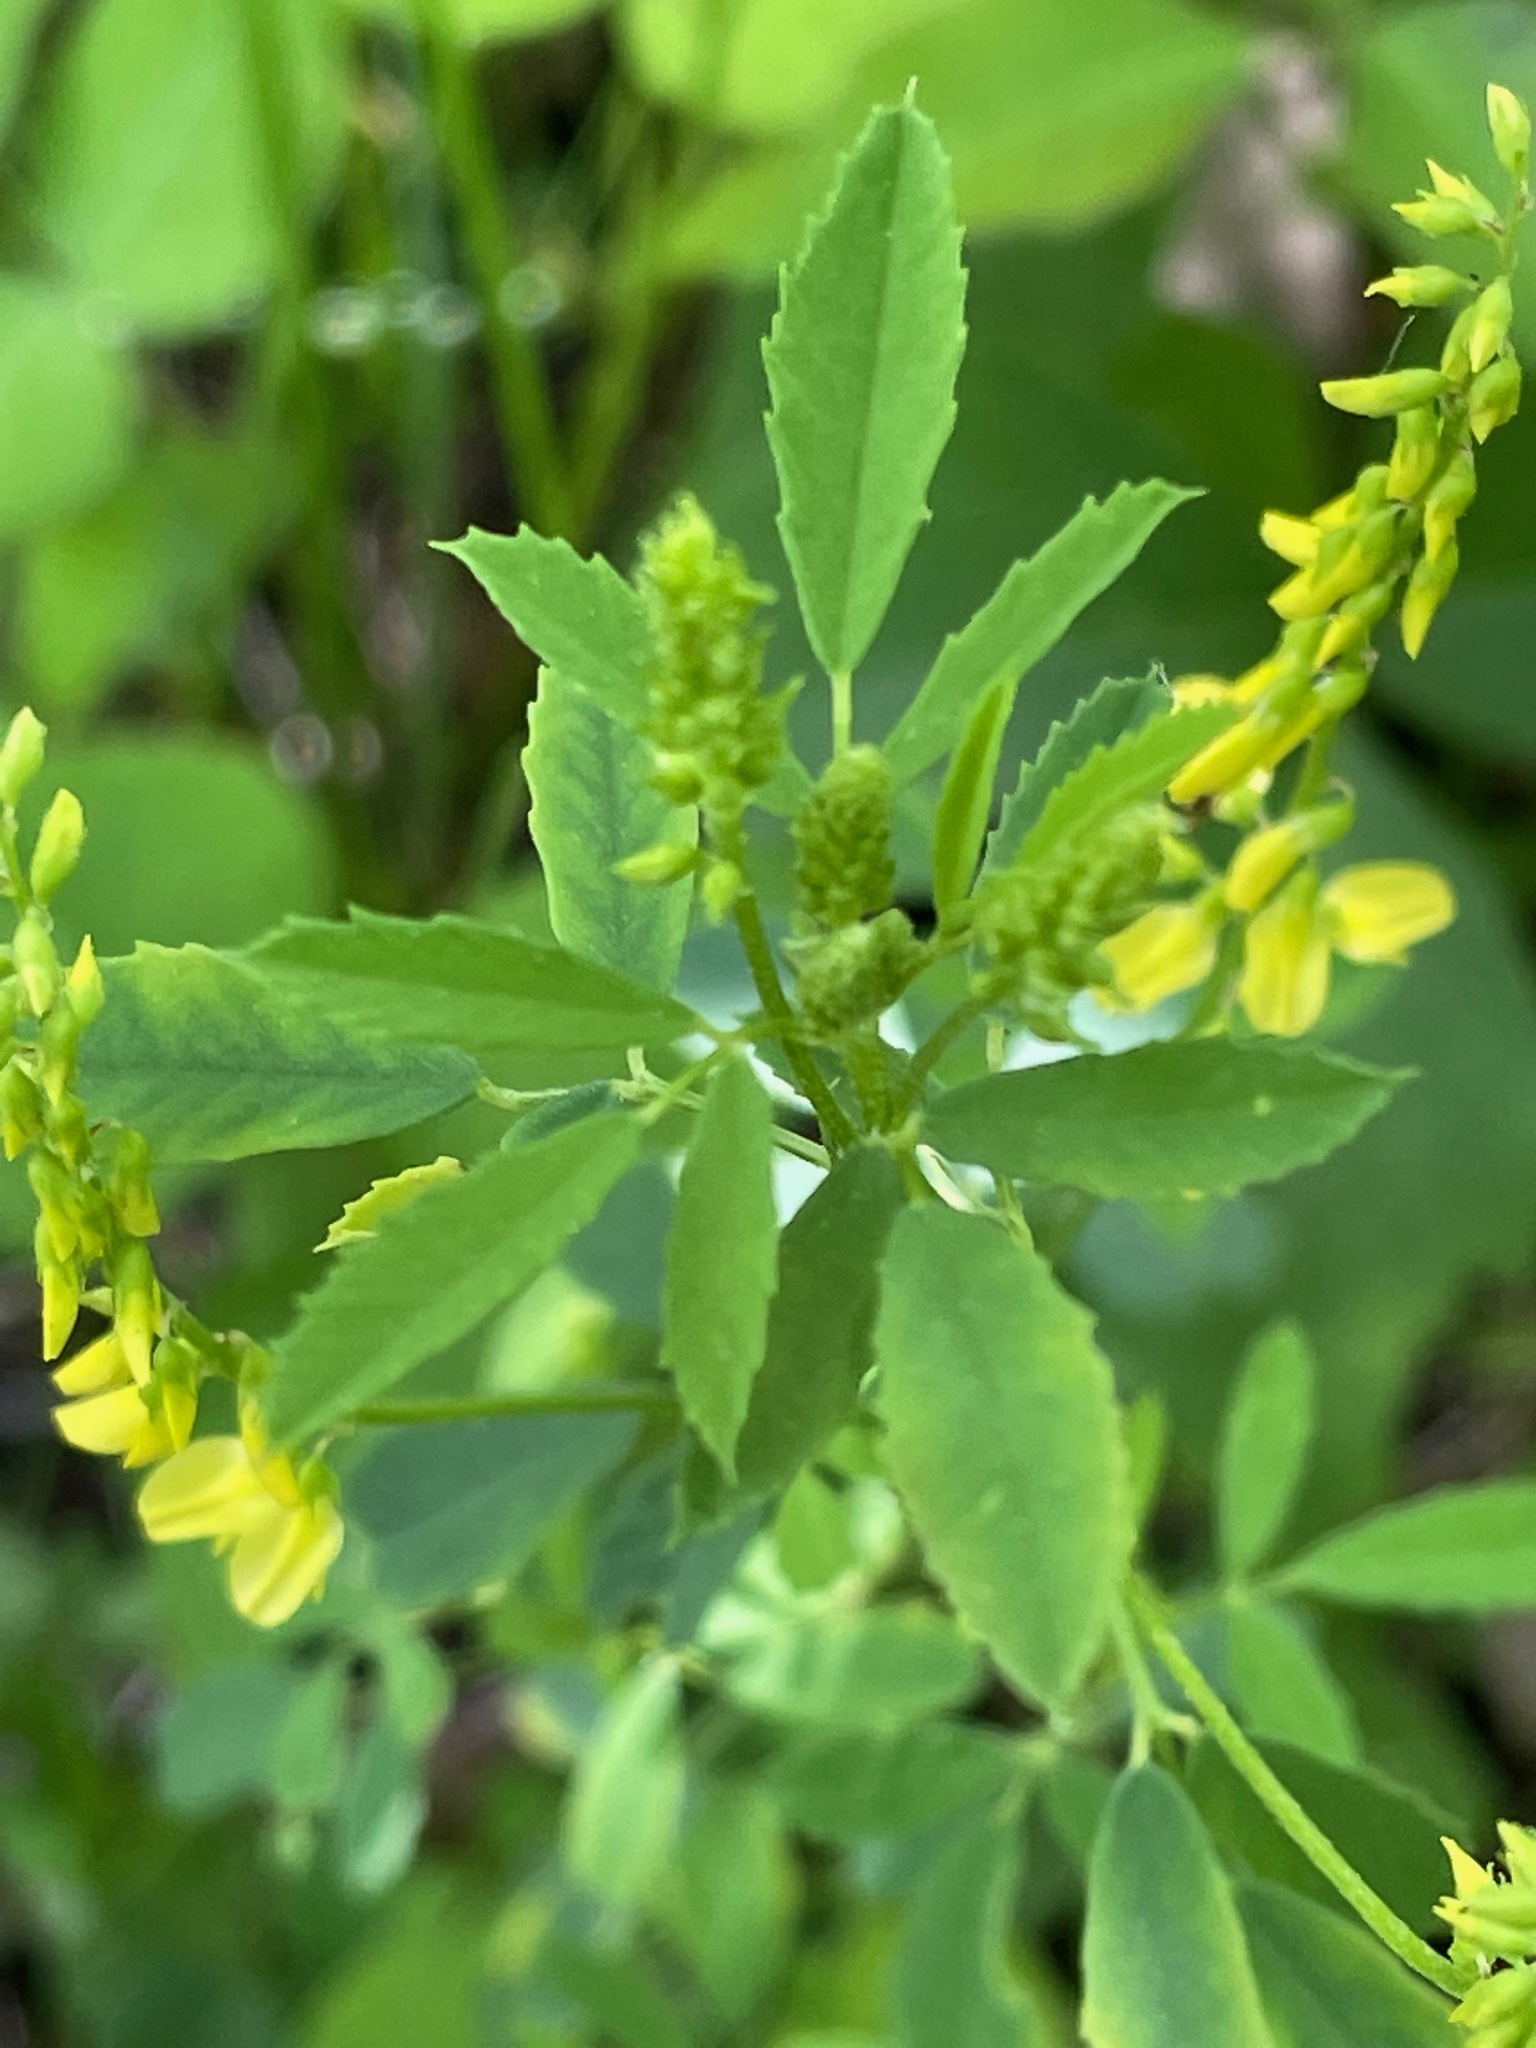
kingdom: Plantae
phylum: Tracheophyta
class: Magnoliopsida
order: Fabales
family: Fabaceae
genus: Melilotus
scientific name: Melilotus officinalis
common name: Sweetclover
